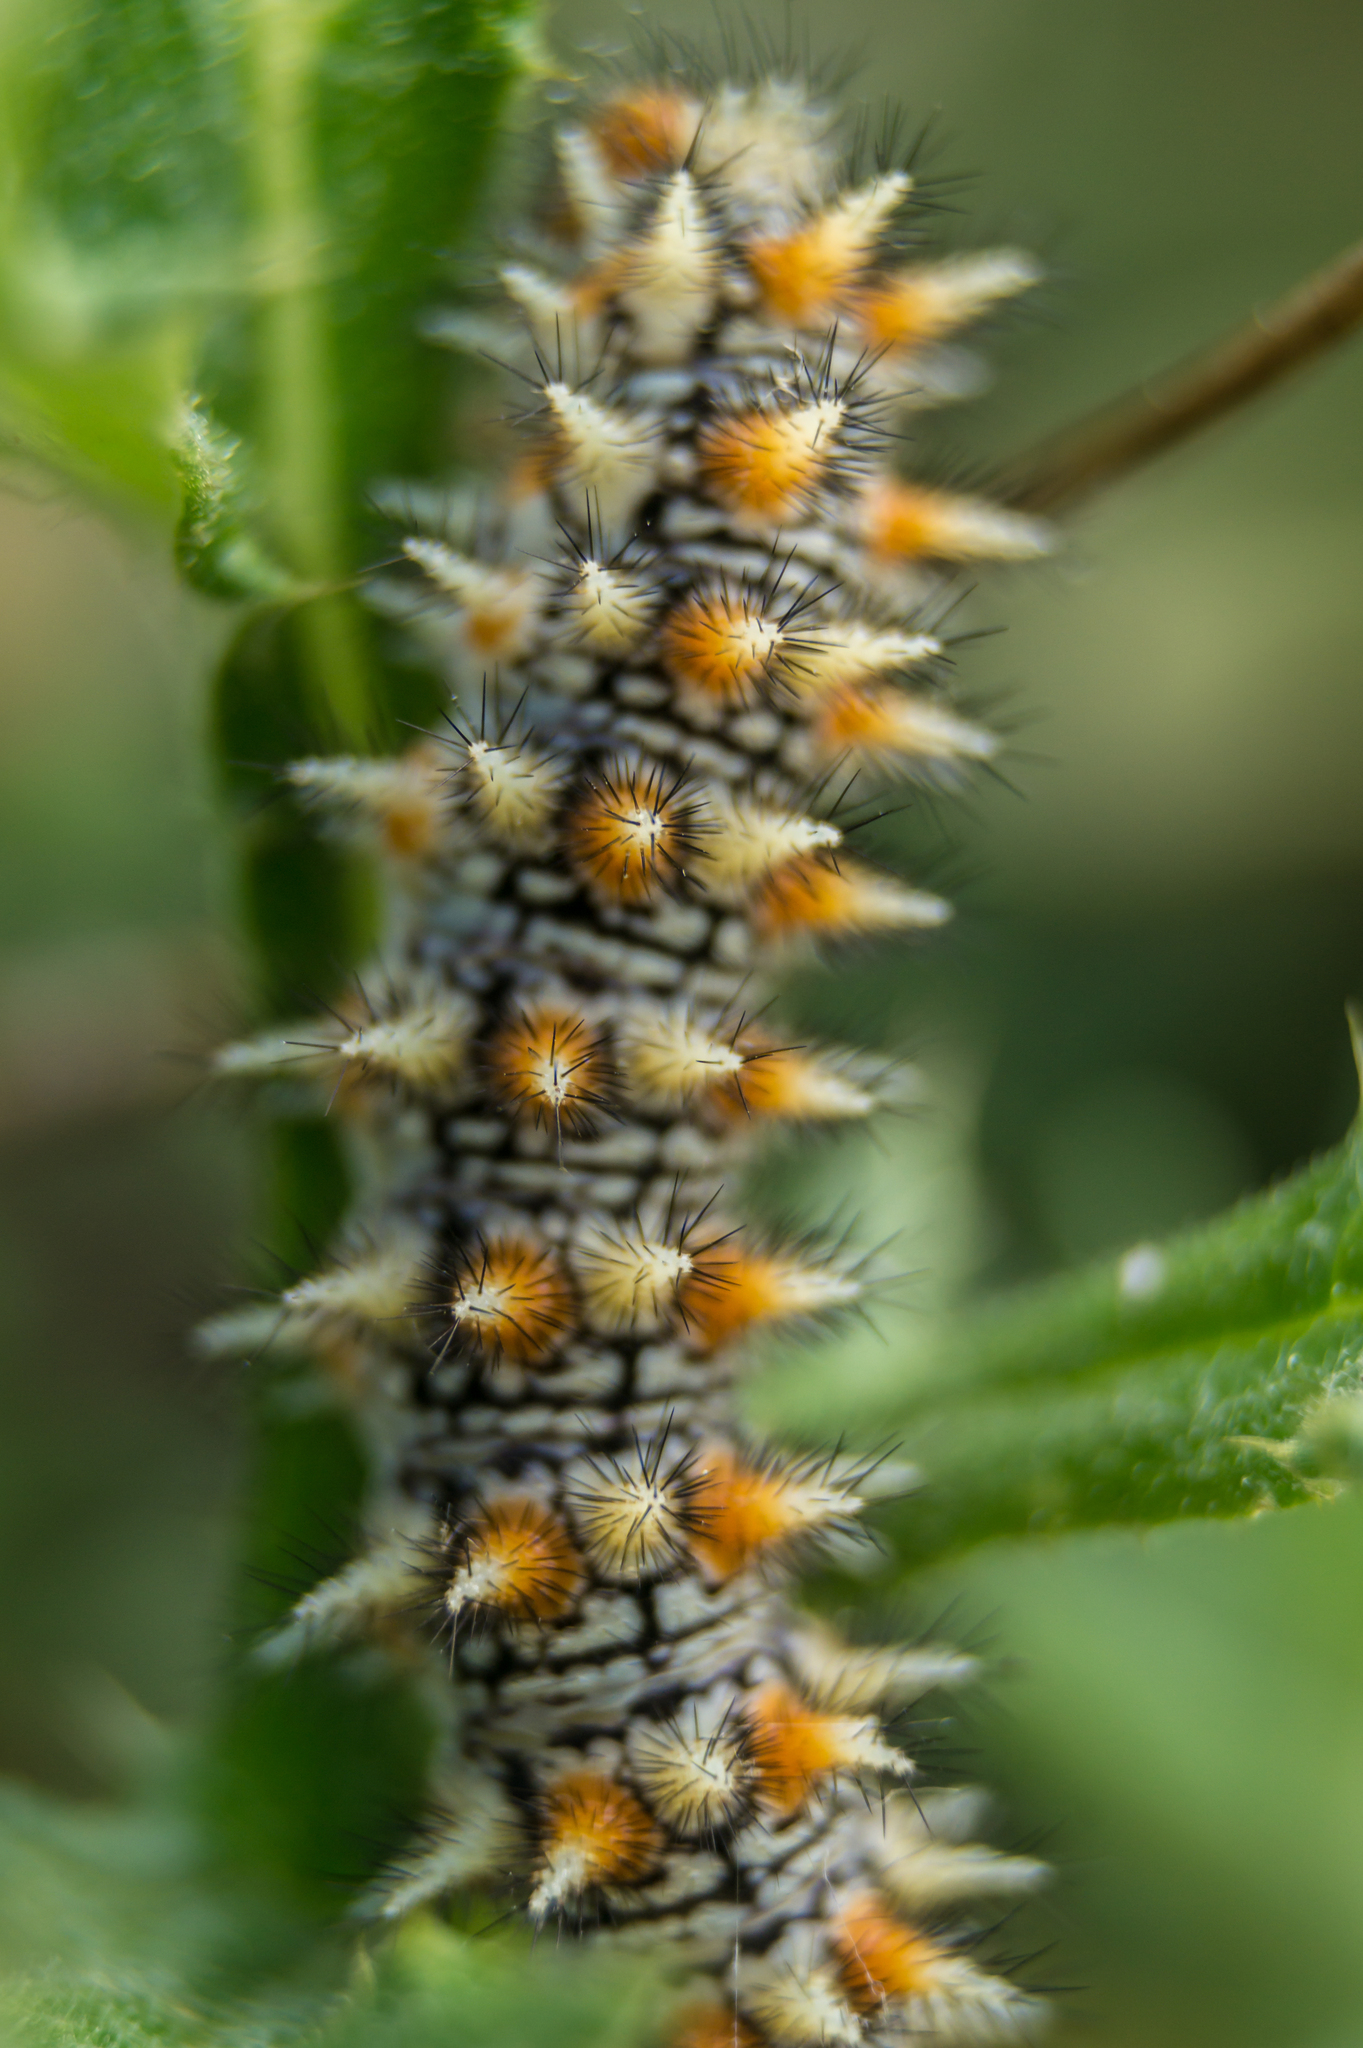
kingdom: Animalia
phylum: Arthropoda
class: Insecta
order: Lepidoptera
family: Nymphalidae
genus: Melitaea
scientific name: Melitaea didyma
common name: Spotted fritillary
